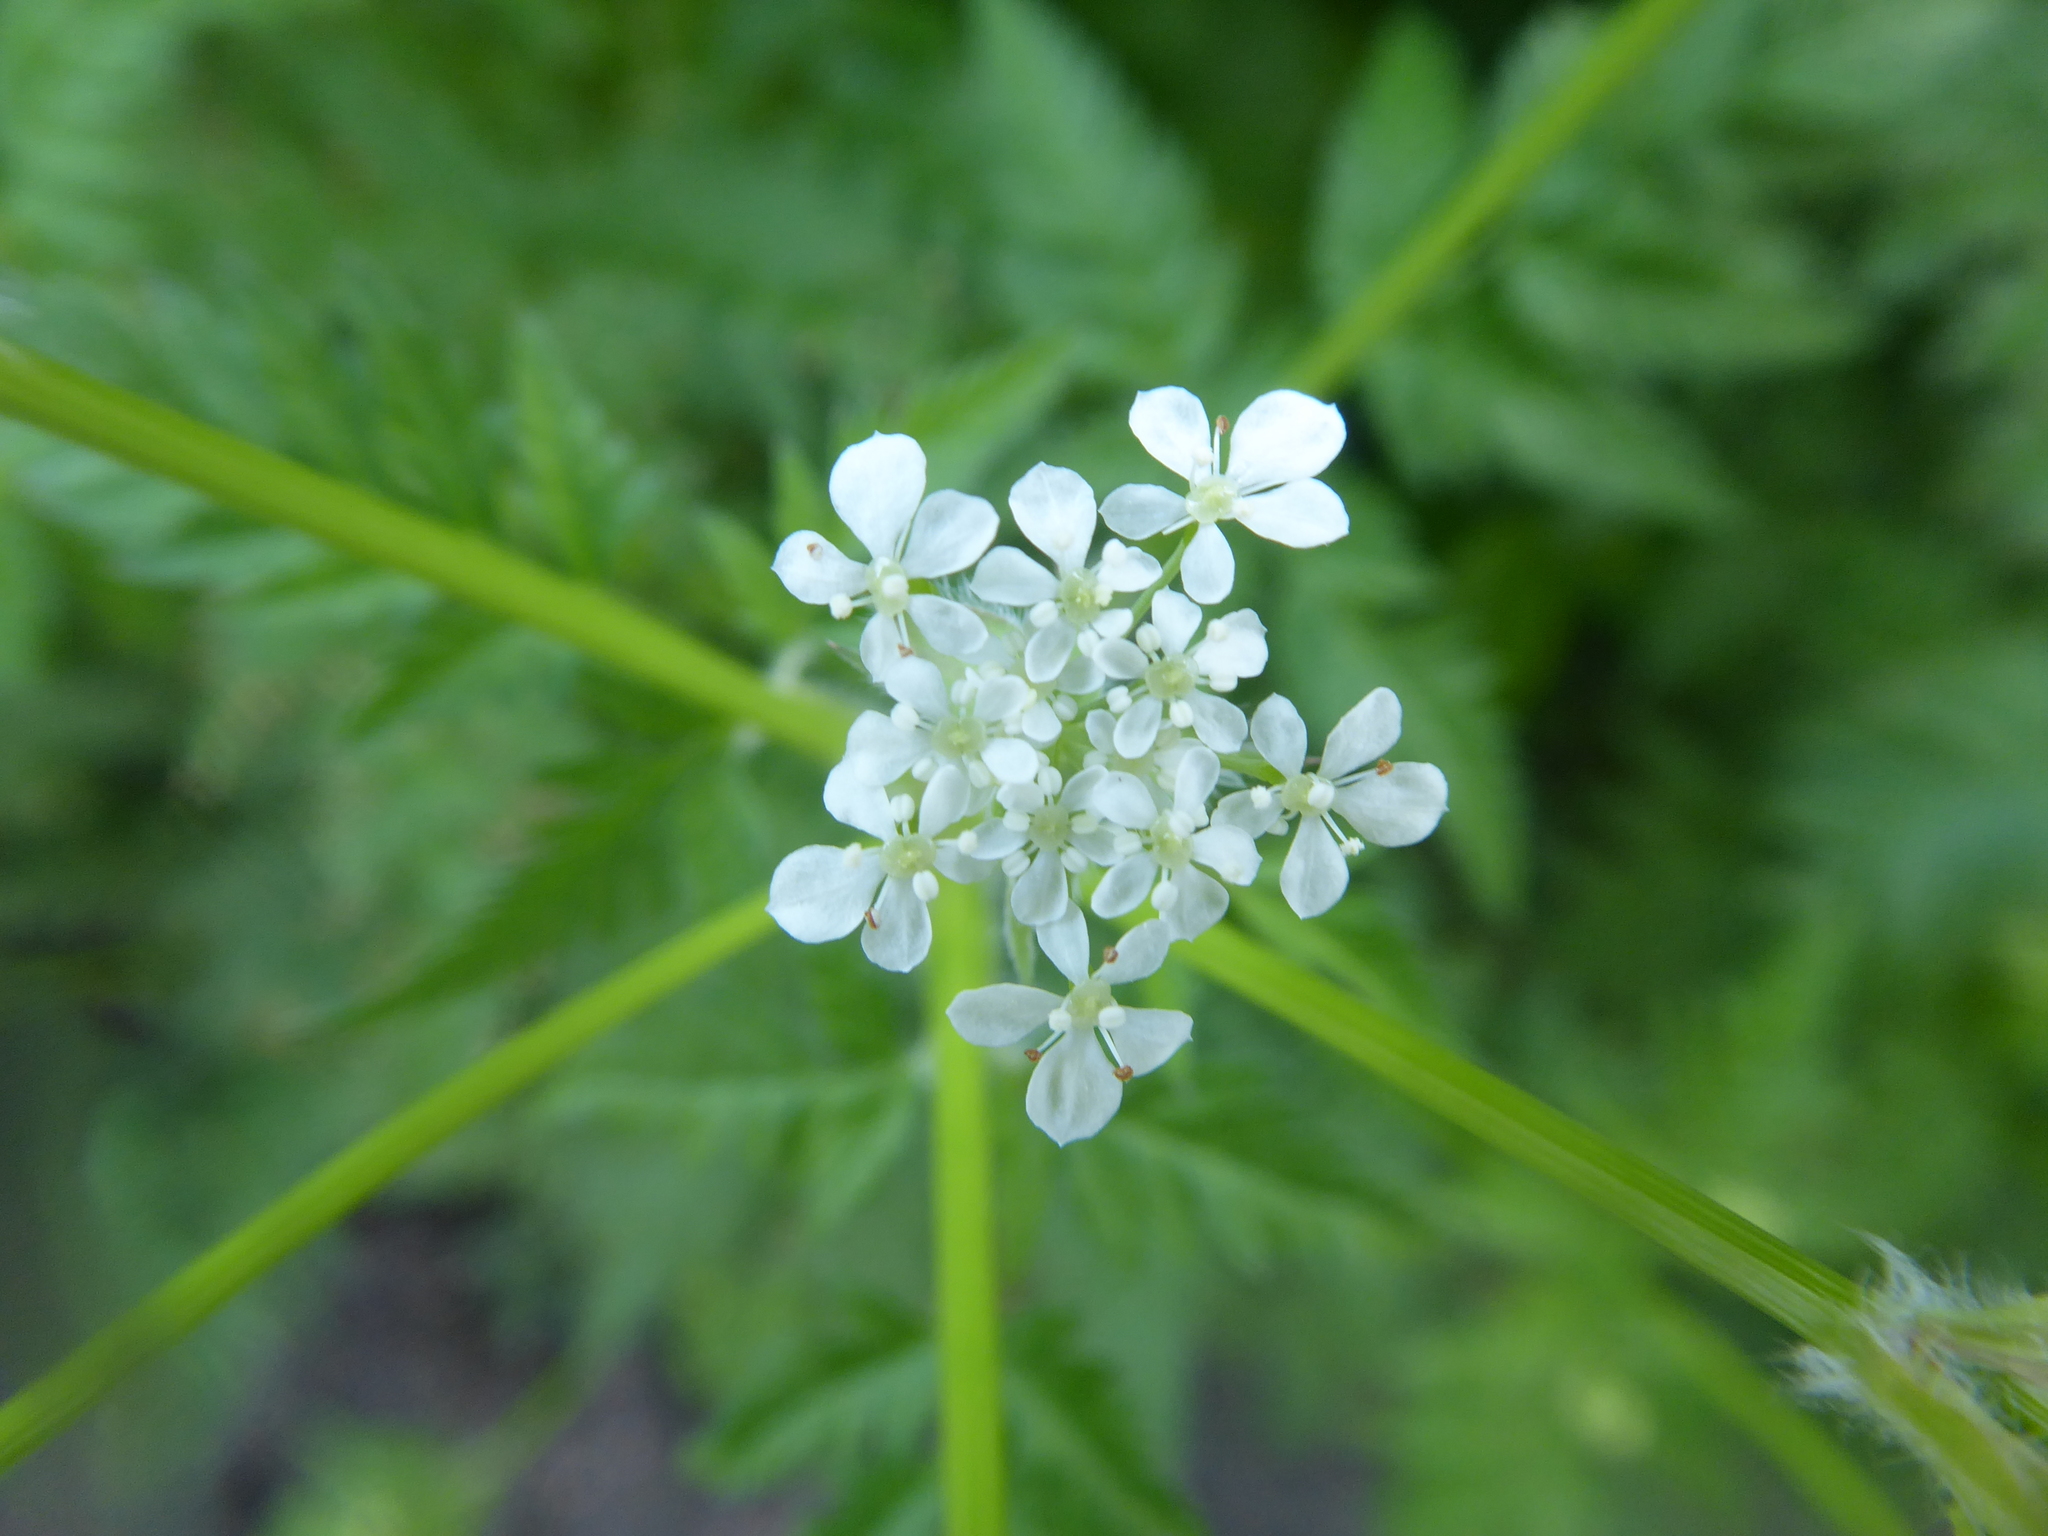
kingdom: Plantae
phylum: Tracheophyta
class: Magnoliopsida
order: Apiales
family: Apiaceae
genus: Anthriscus
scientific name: Anthriscus sylvestris
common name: Cow parsley
